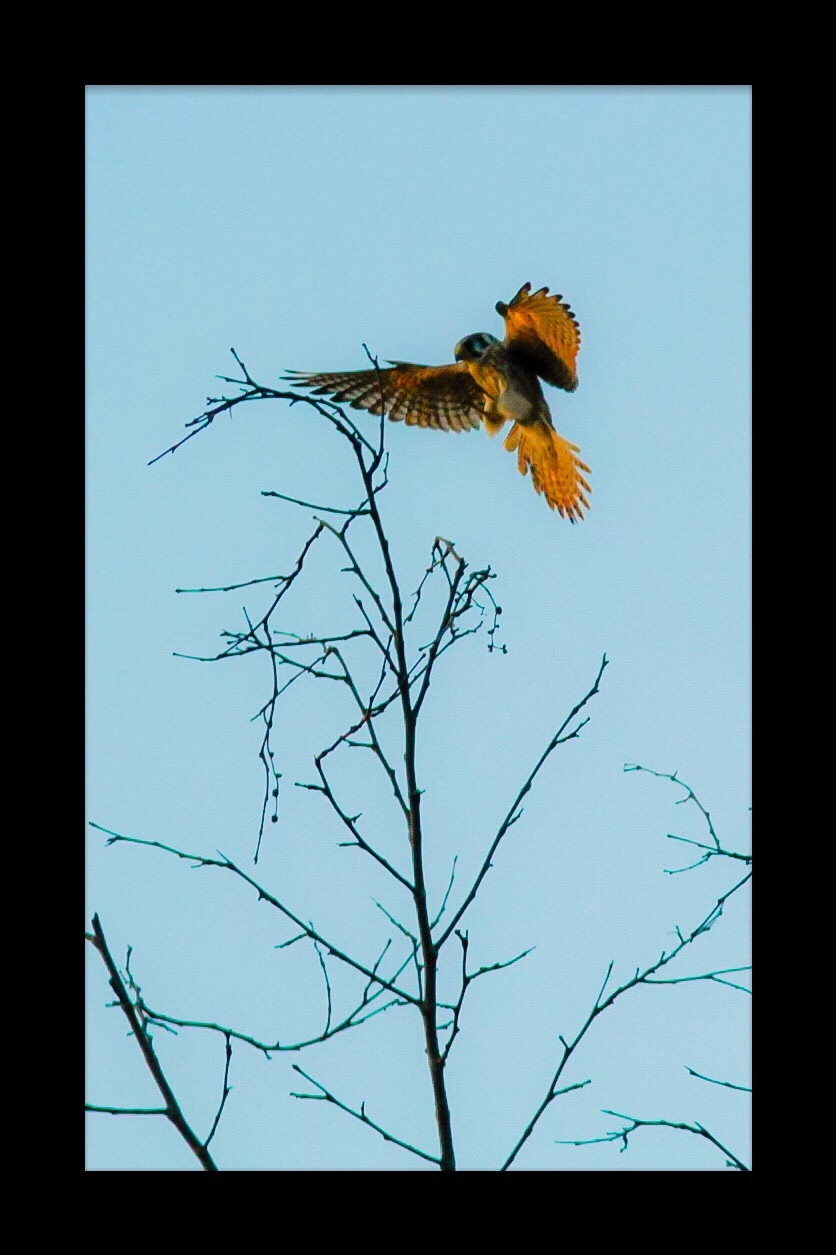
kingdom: Animalia
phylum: Chordata
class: Aves
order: Falconiformes
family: Falconidae
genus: Falco
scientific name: Falco sparverius
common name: American kestrel
